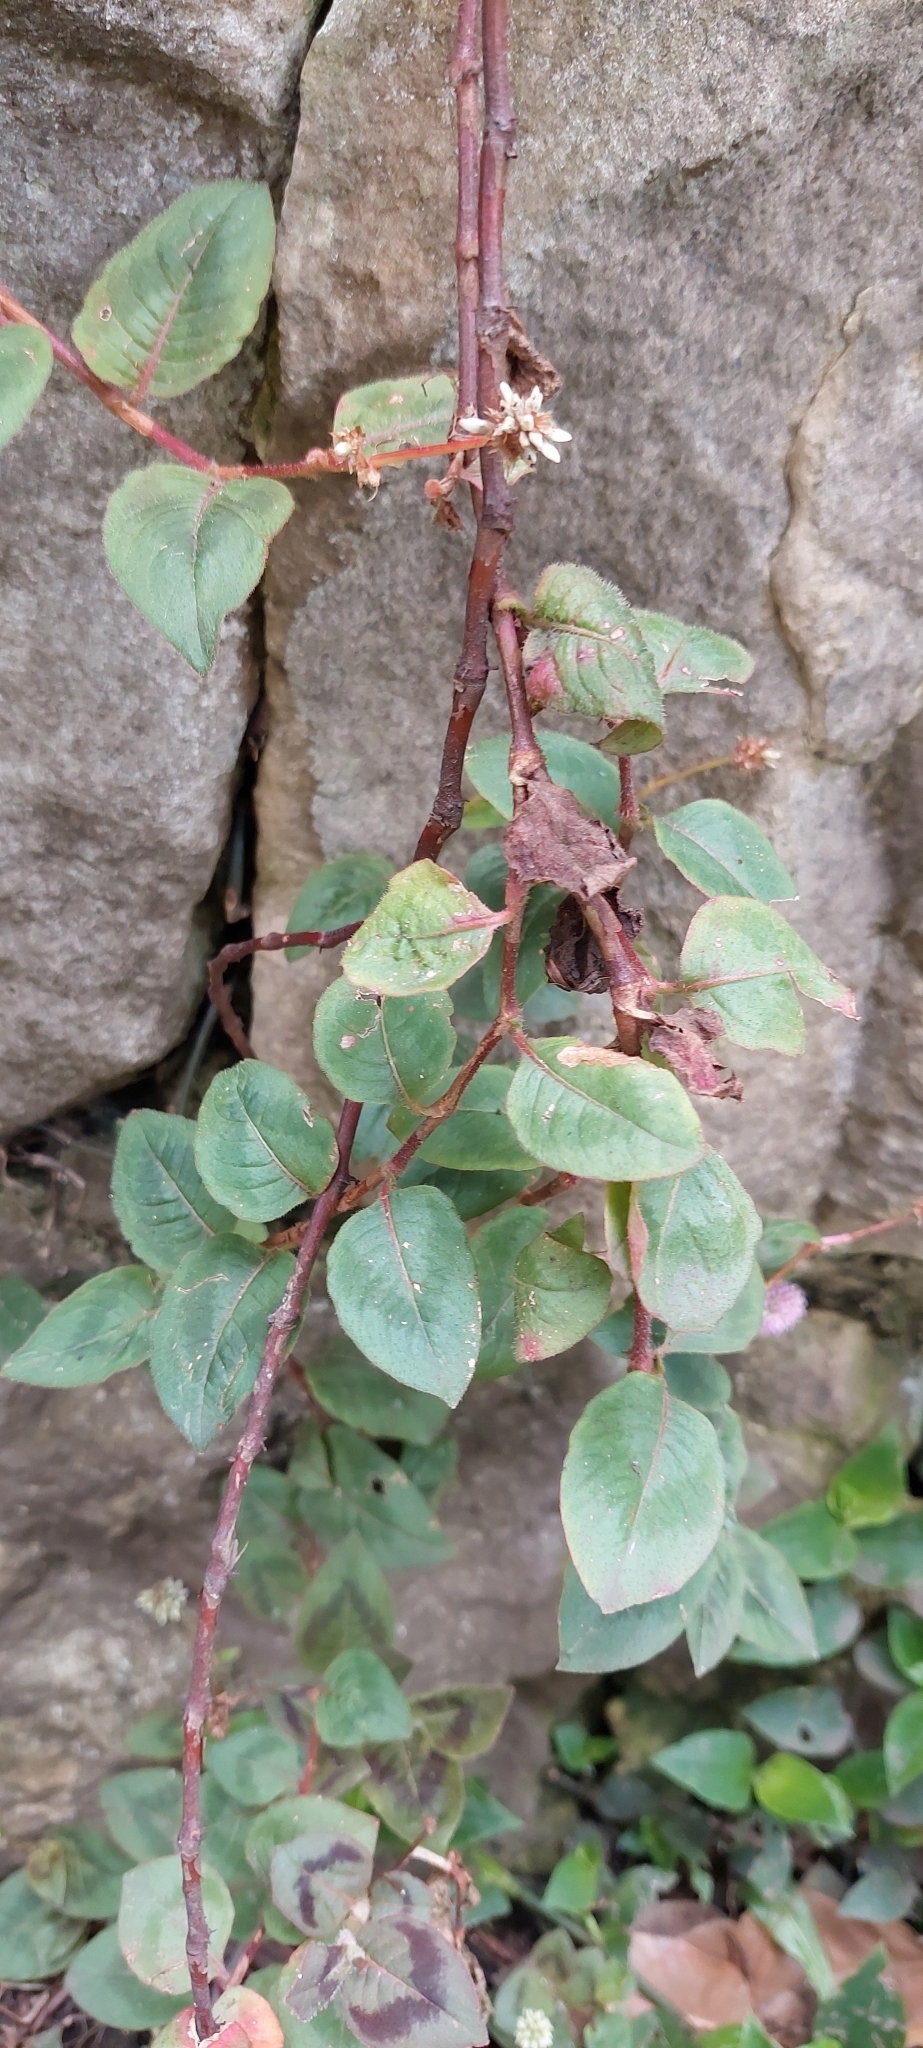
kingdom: Plantae
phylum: Tracheophyta
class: Magnoliopsida
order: Caryophyllales
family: Polygonaceae
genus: Persicaria
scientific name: Persicaria capitata
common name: Pinkhead smartweed
